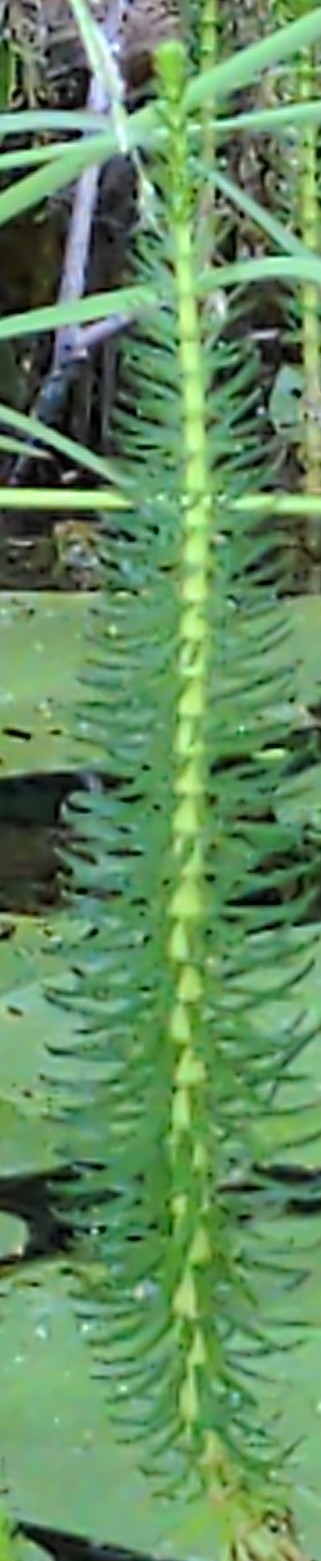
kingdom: Plantae
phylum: Tracheophyta
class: Magnoliopsida
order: Lamiales
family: Plantaginaceae
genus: Hippuris
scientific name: Hippuris vulgaris
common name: Mare's-tail
